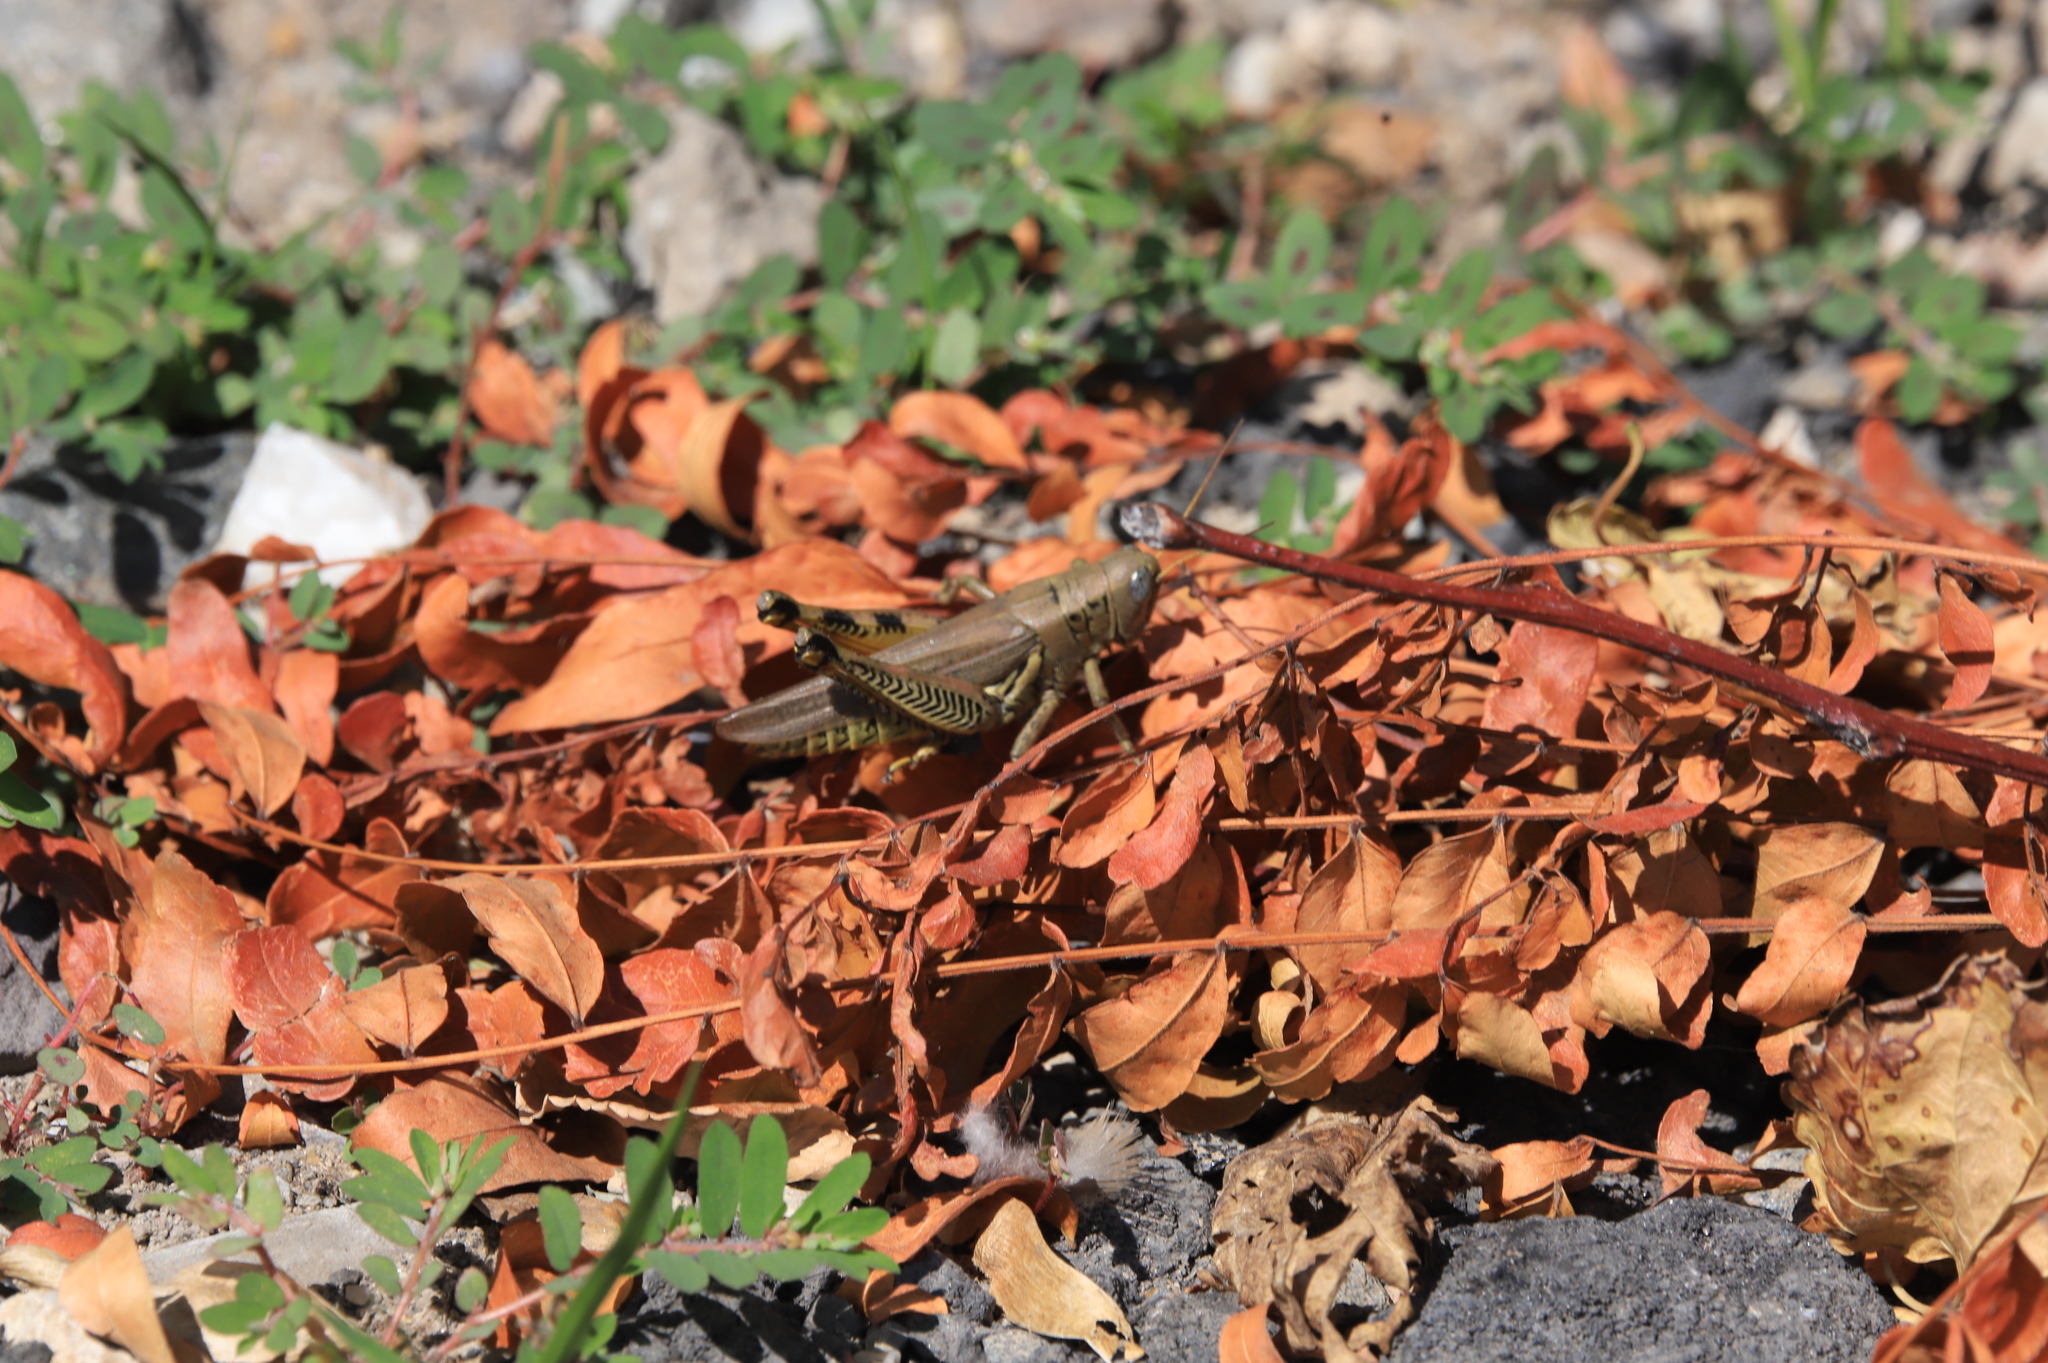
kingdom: Animalia
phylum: Arthropoda
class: Insecta
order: Orthoptera
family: Acrididae
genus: Melanoplus
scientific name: Melanoplus differentialis
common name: Differential grasshopper
